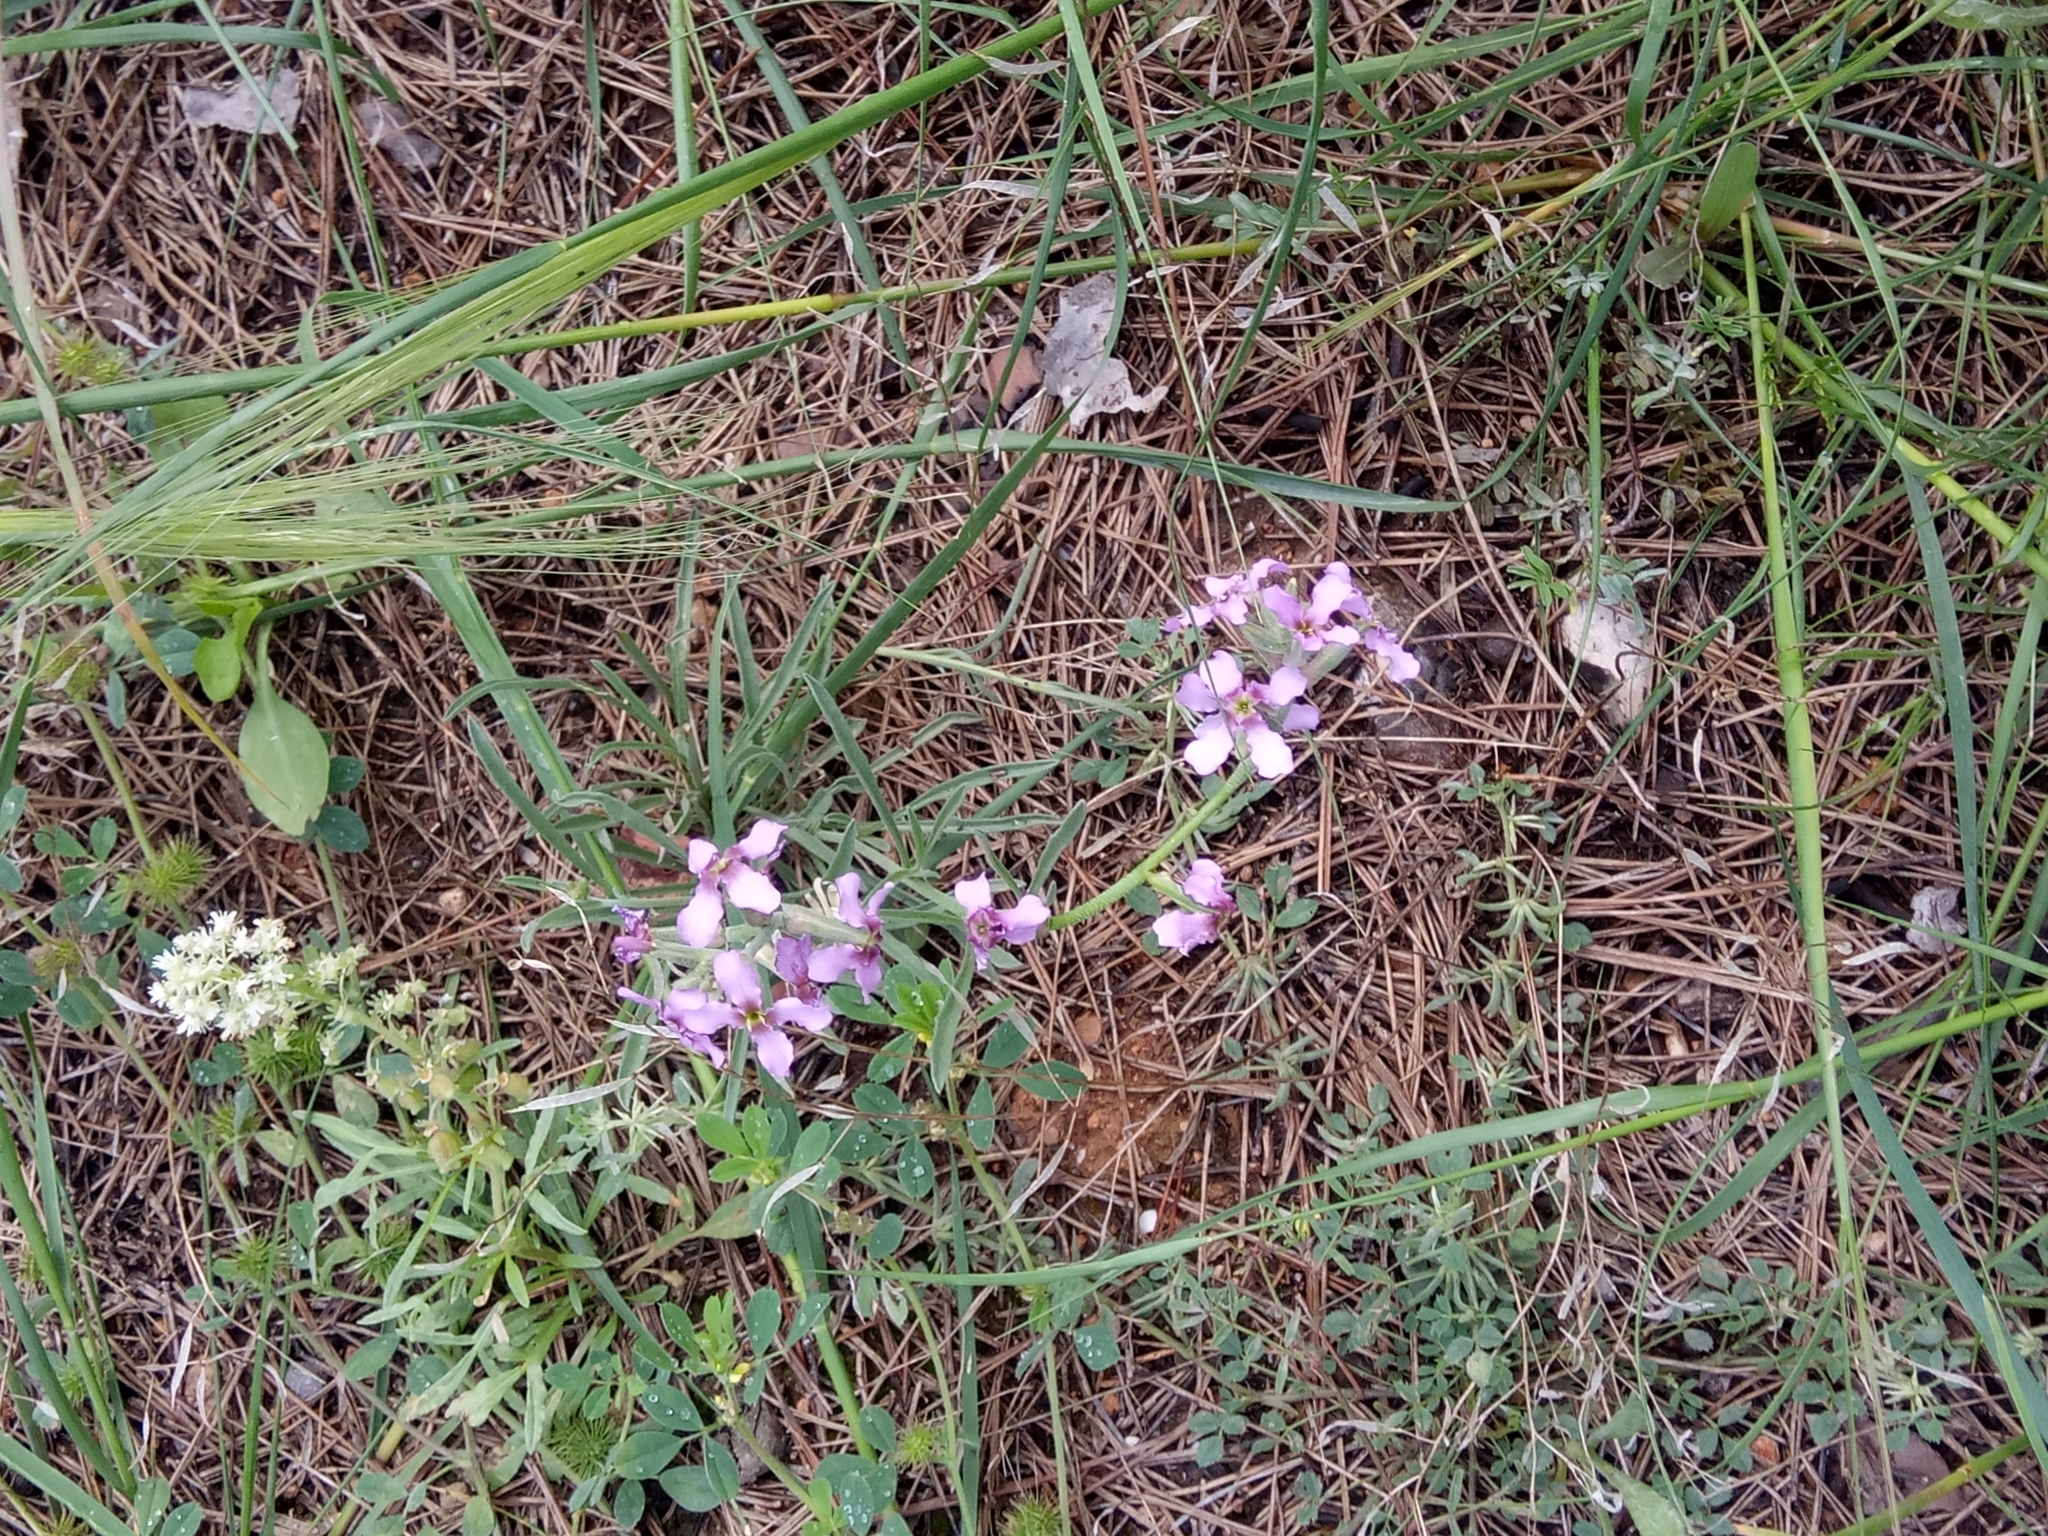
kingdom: Plantae
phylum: Tracheophyta
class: Magnoliopsida
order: Brassicales
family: Brassicaceae
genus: Matthiola
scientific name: Matthiola fruticulosa
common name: Sad stock
